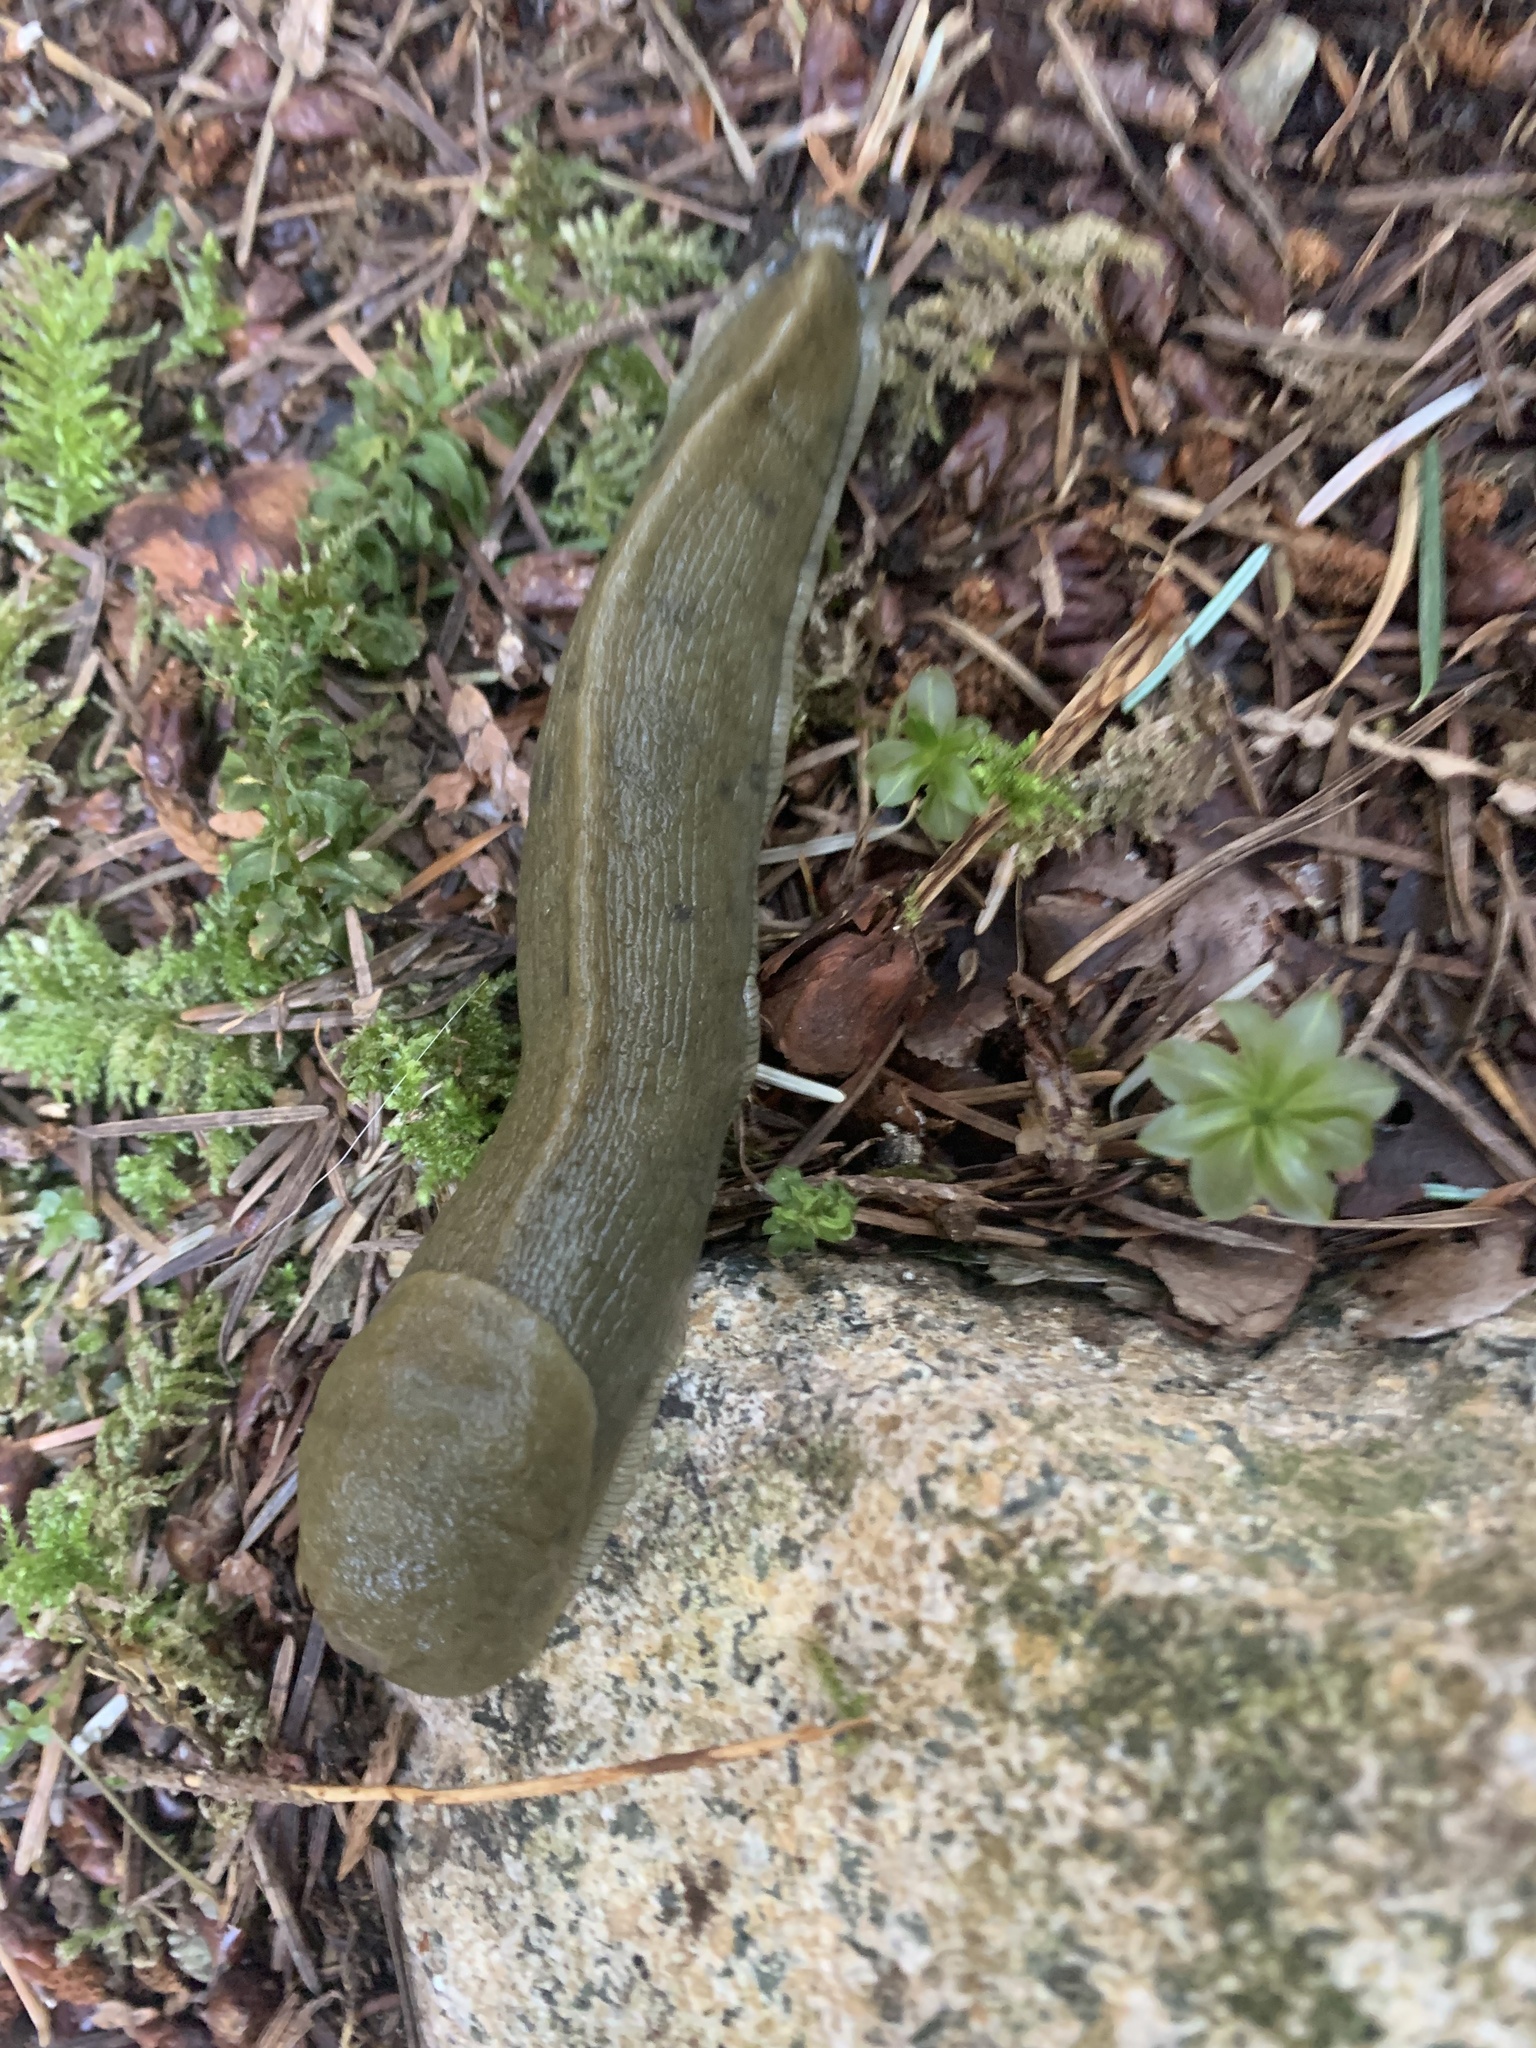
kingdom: Animalia
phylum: Mollusca
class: Gastropoda
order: Stylommatophora
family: Ariolimacidae
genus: Ariolimax
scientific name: Ariolimax columbianus
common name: Pacific banana slug
